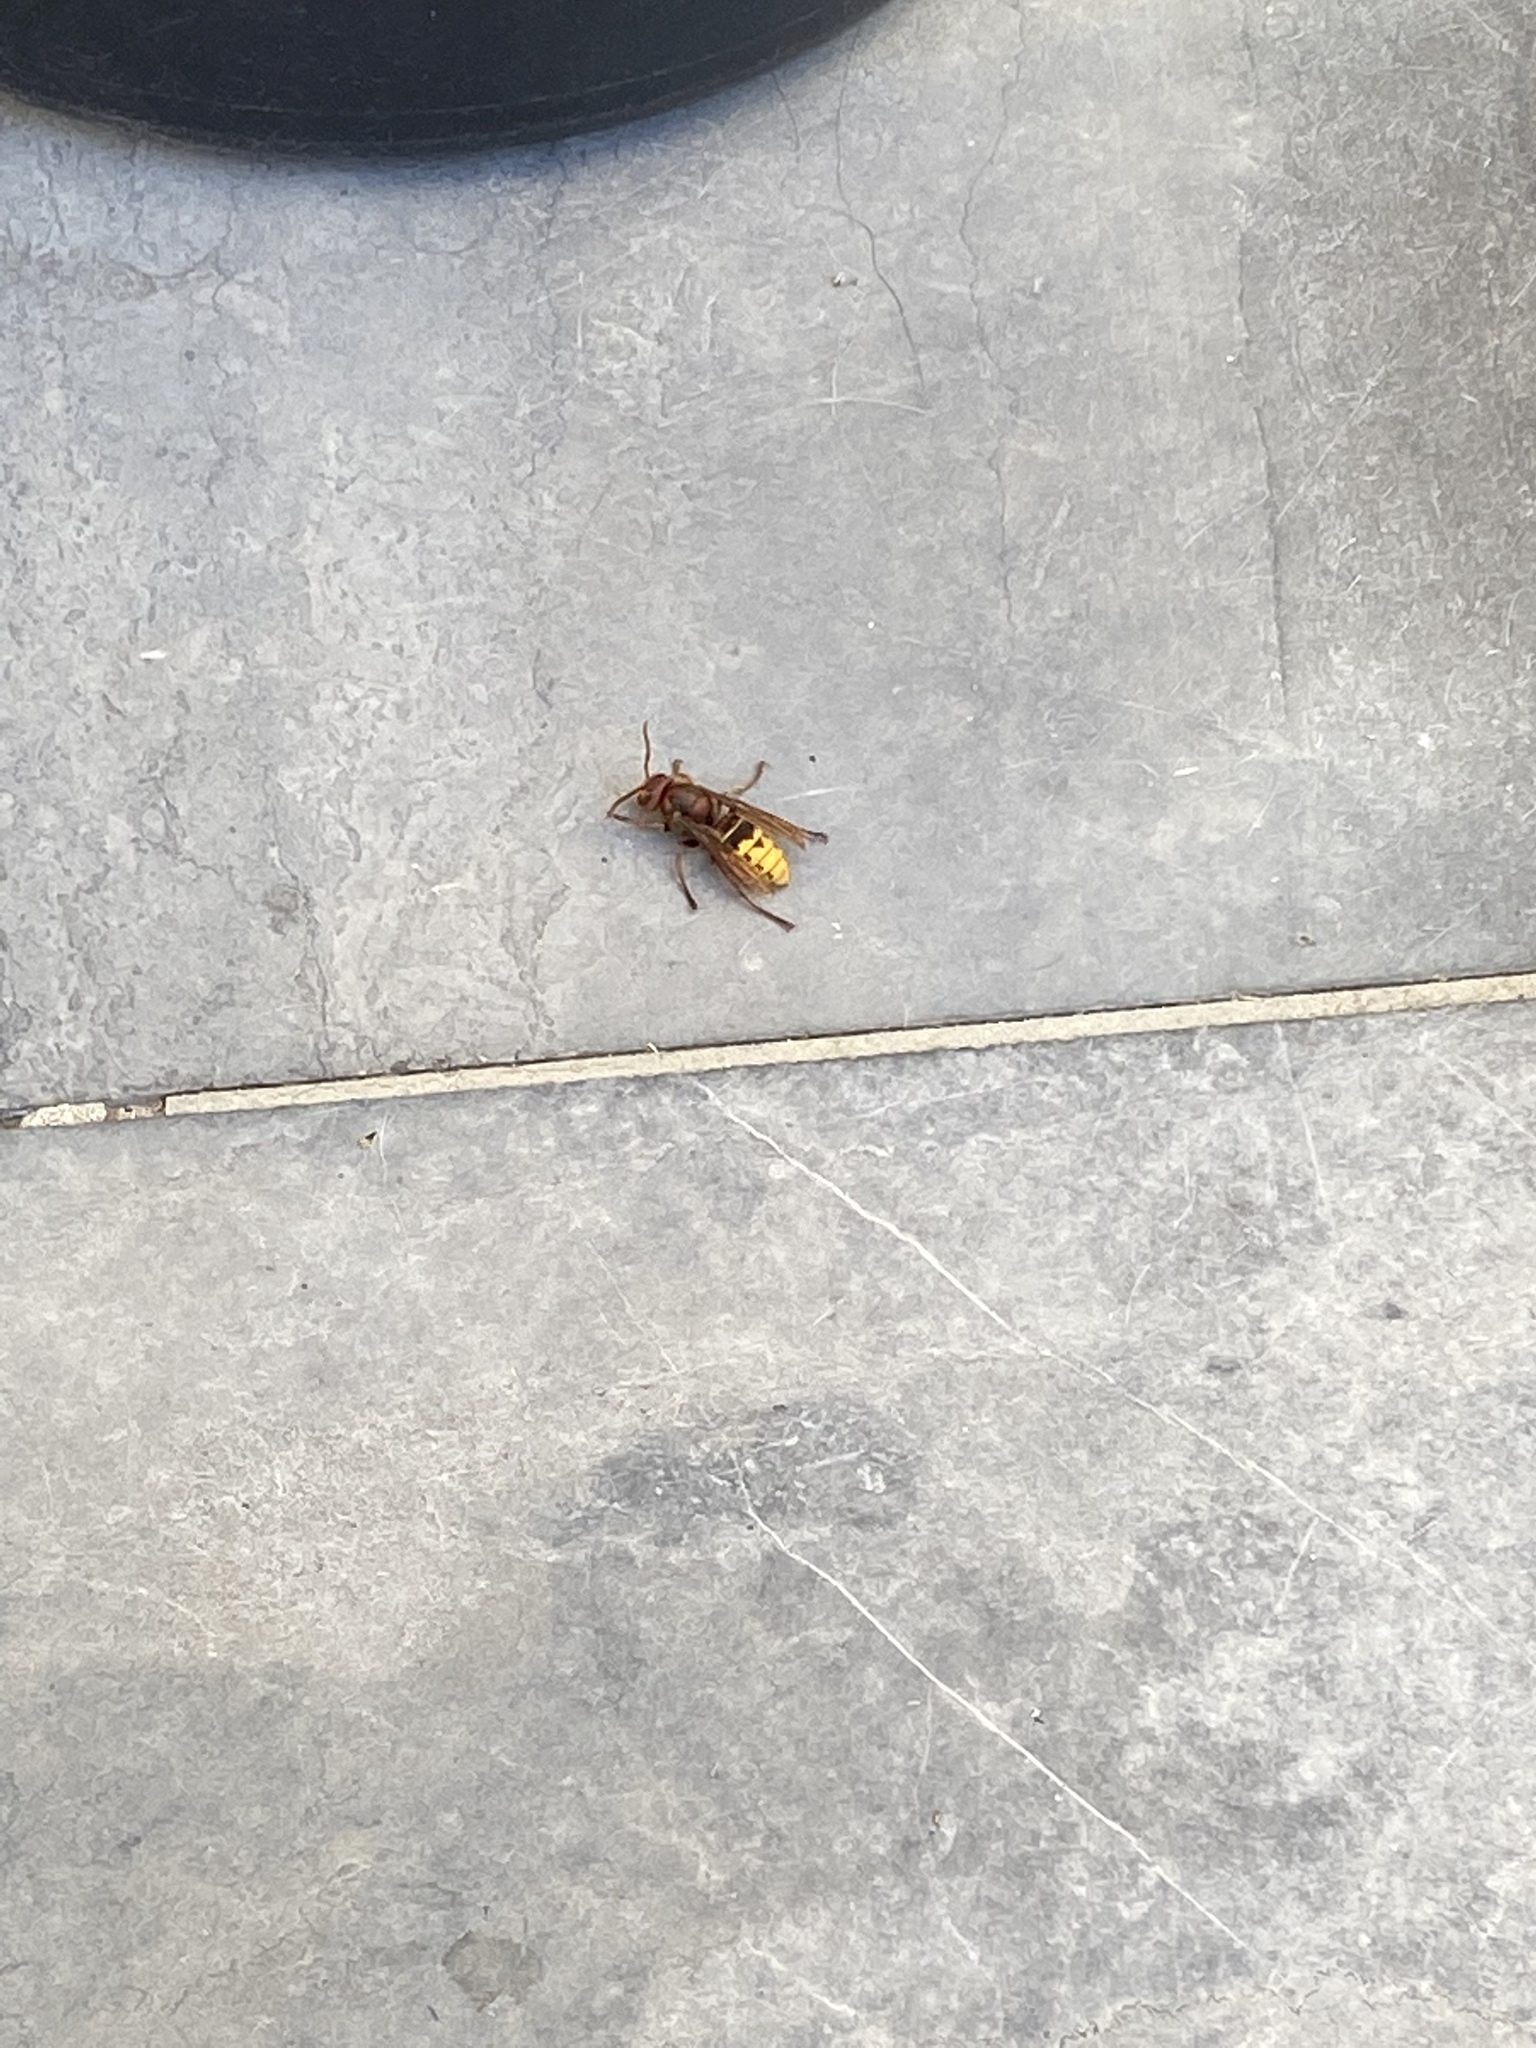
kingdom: Animalia
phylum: Arthropoda
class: Insecta
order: Hymenoptera
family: Vespidae
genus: Vespa
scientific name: Vespa crabro
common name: Hornet
